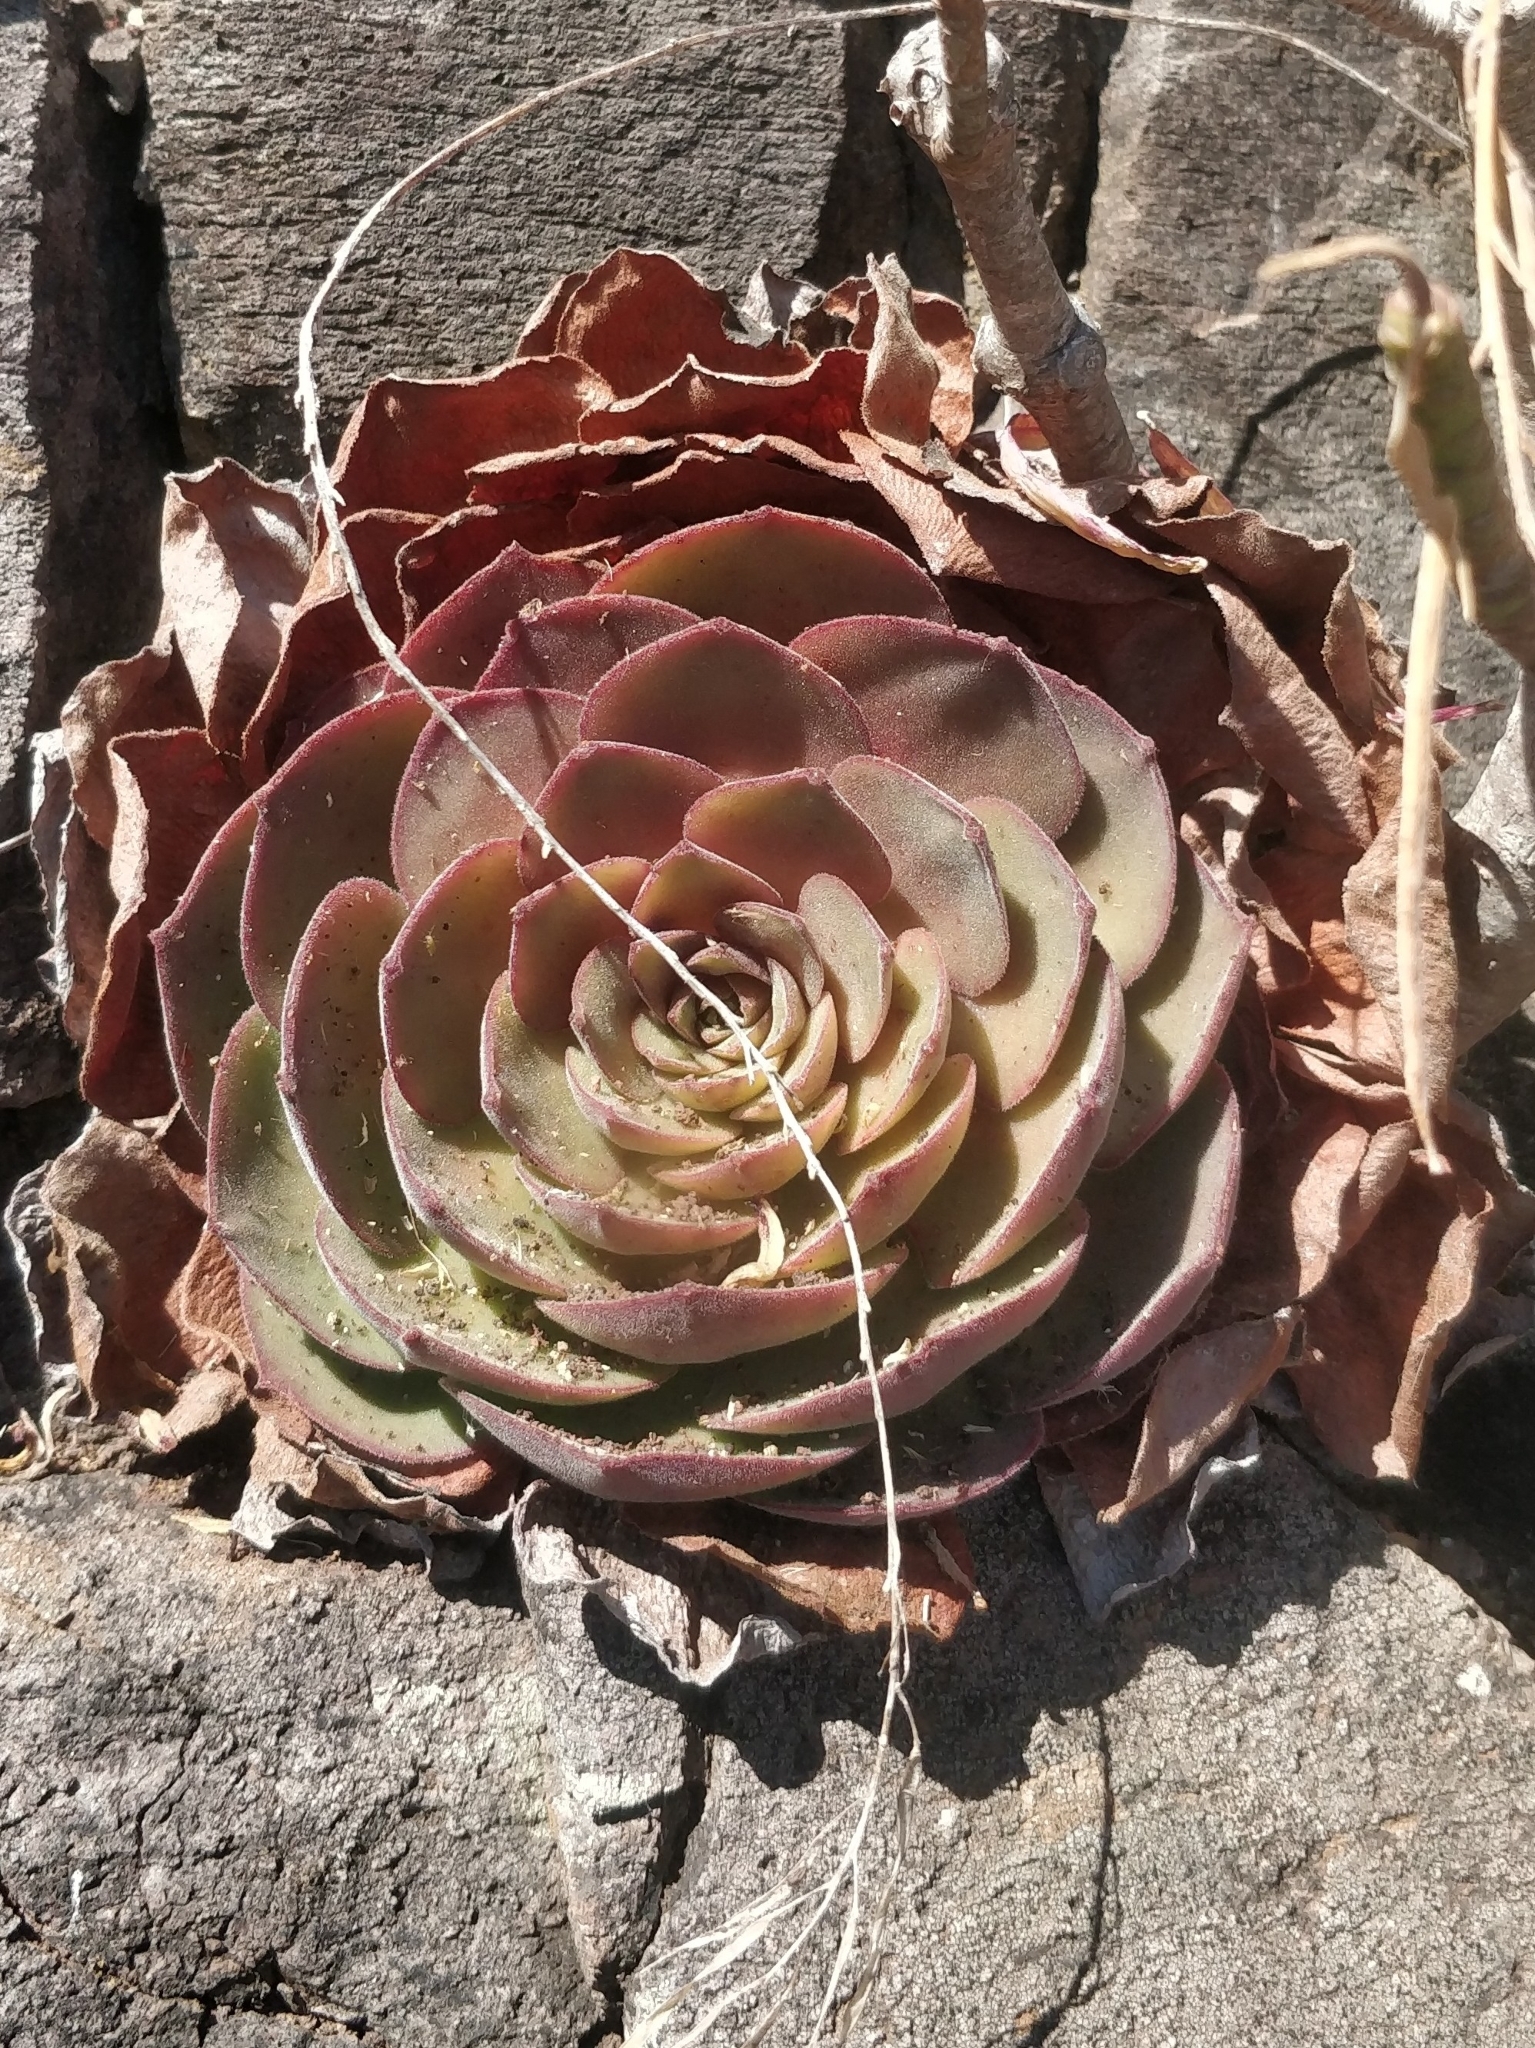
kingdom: Plantae
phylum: Tracheophyta
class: Magnoliopsida
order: Saxifragales
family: Crassulaceae
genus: Aeonium
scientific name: Aeonium glandulosum
